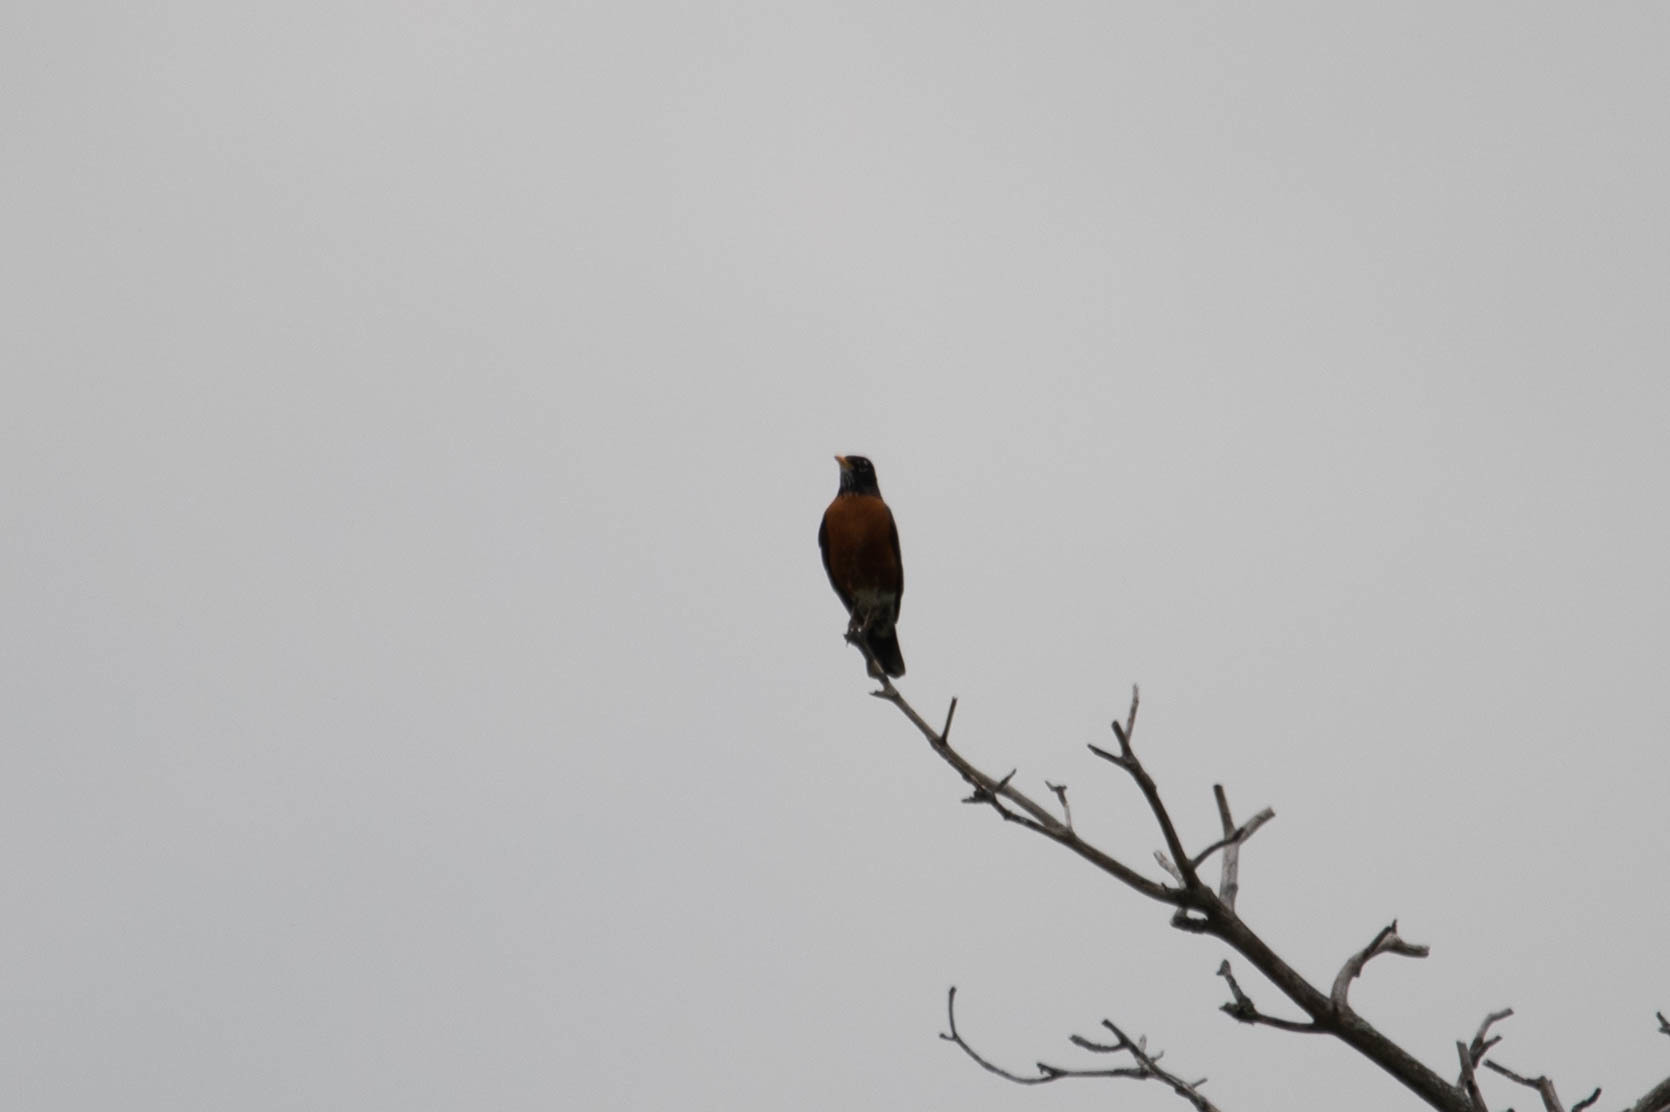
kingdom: Animalia
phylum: Chordata
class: Aves
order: Passeriformes
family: Turdidae
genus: Turdus
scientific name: Turdus migratorius
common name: American robin
